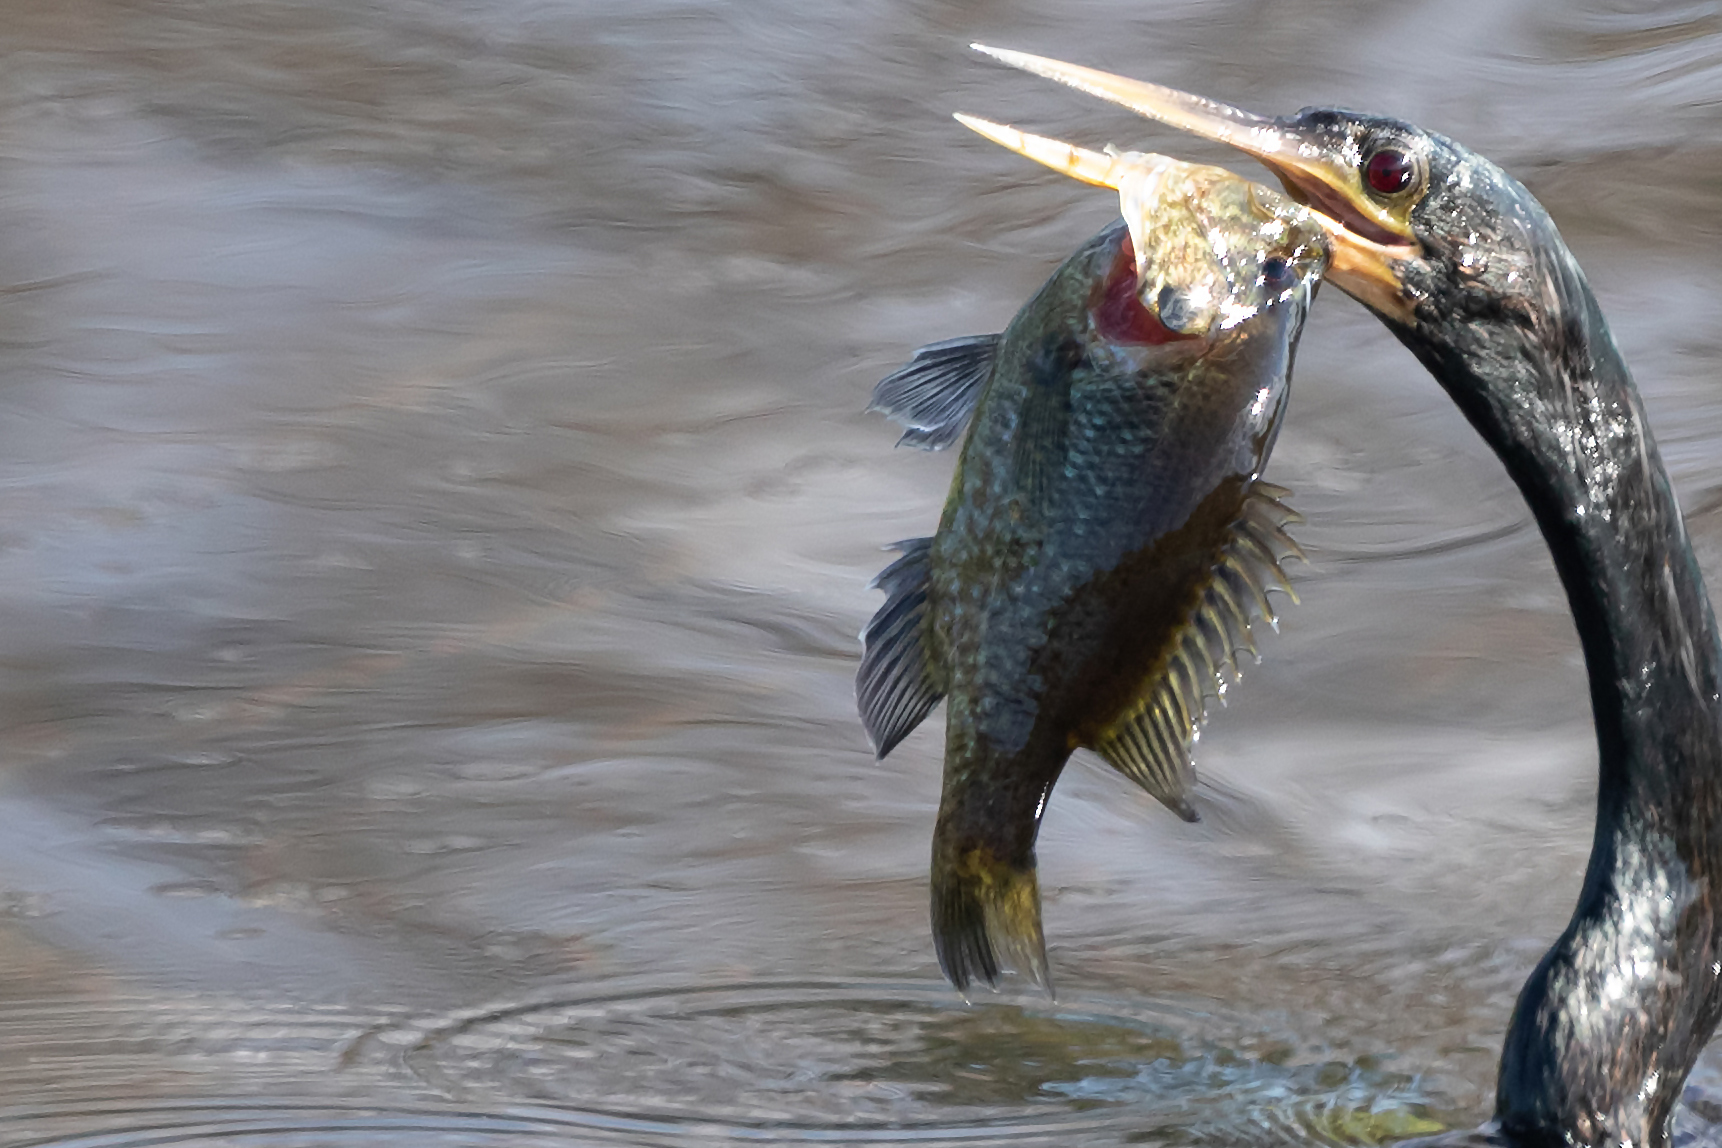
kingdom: Animalia
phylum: Chordata
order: Perciformes
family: Centrarchidae
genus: Lepomis
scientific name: Lepomis gulosus
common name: Warmouth
